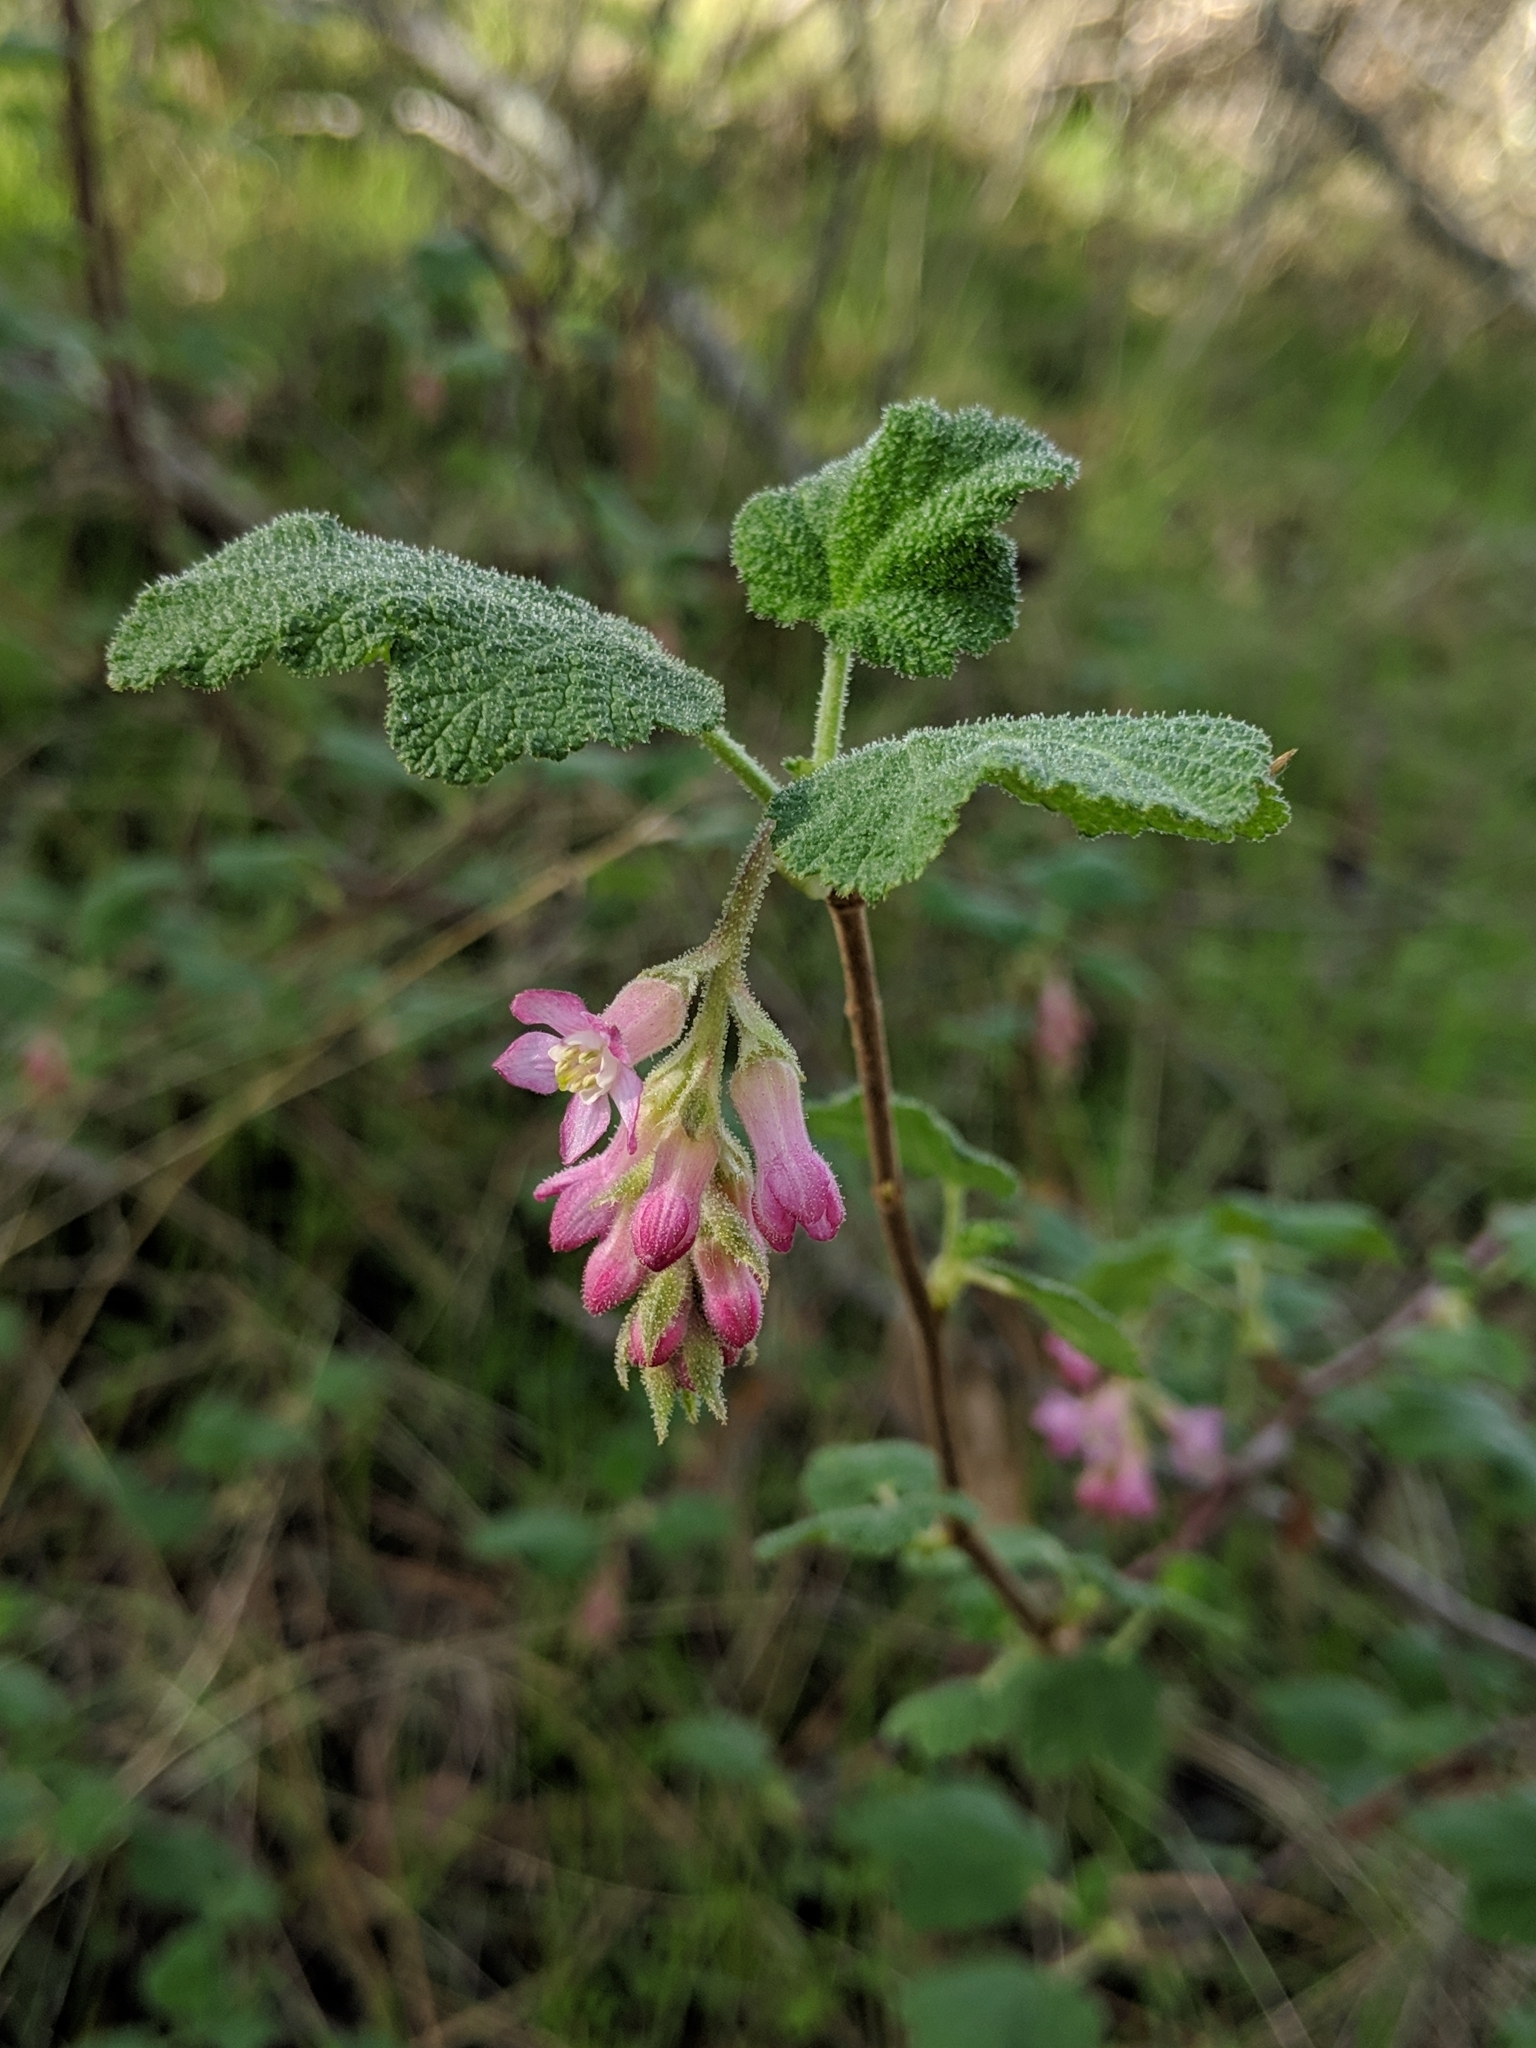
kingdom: Plantae
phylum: Tracheophyta
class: Magnoliopsida
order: Saxifragales
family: Grossulariaceae
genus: Ribes
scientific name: Ribes malvaceum
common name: Chaparral currant
